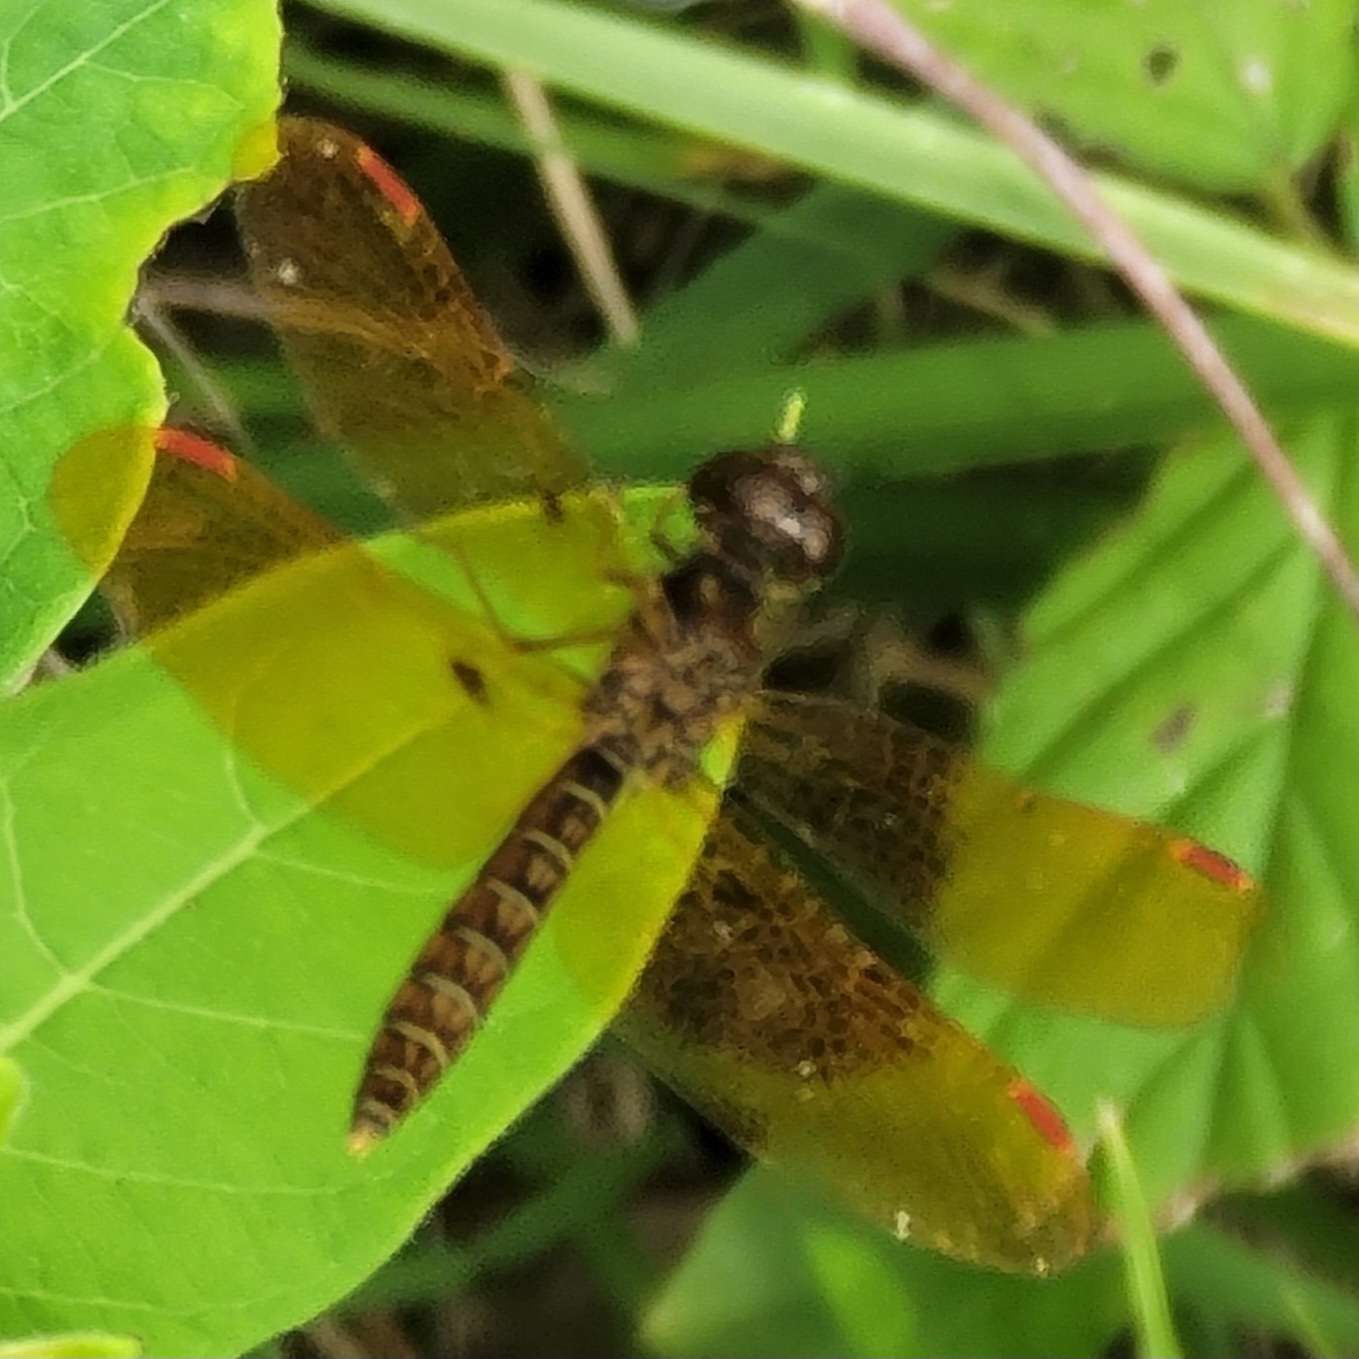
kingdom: Animalia
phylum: Arthropoda
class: Insecta
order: Odonata
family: Libellulidae
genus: Perithemis
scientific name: Perithemis tenera
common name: Eastern amberwing
